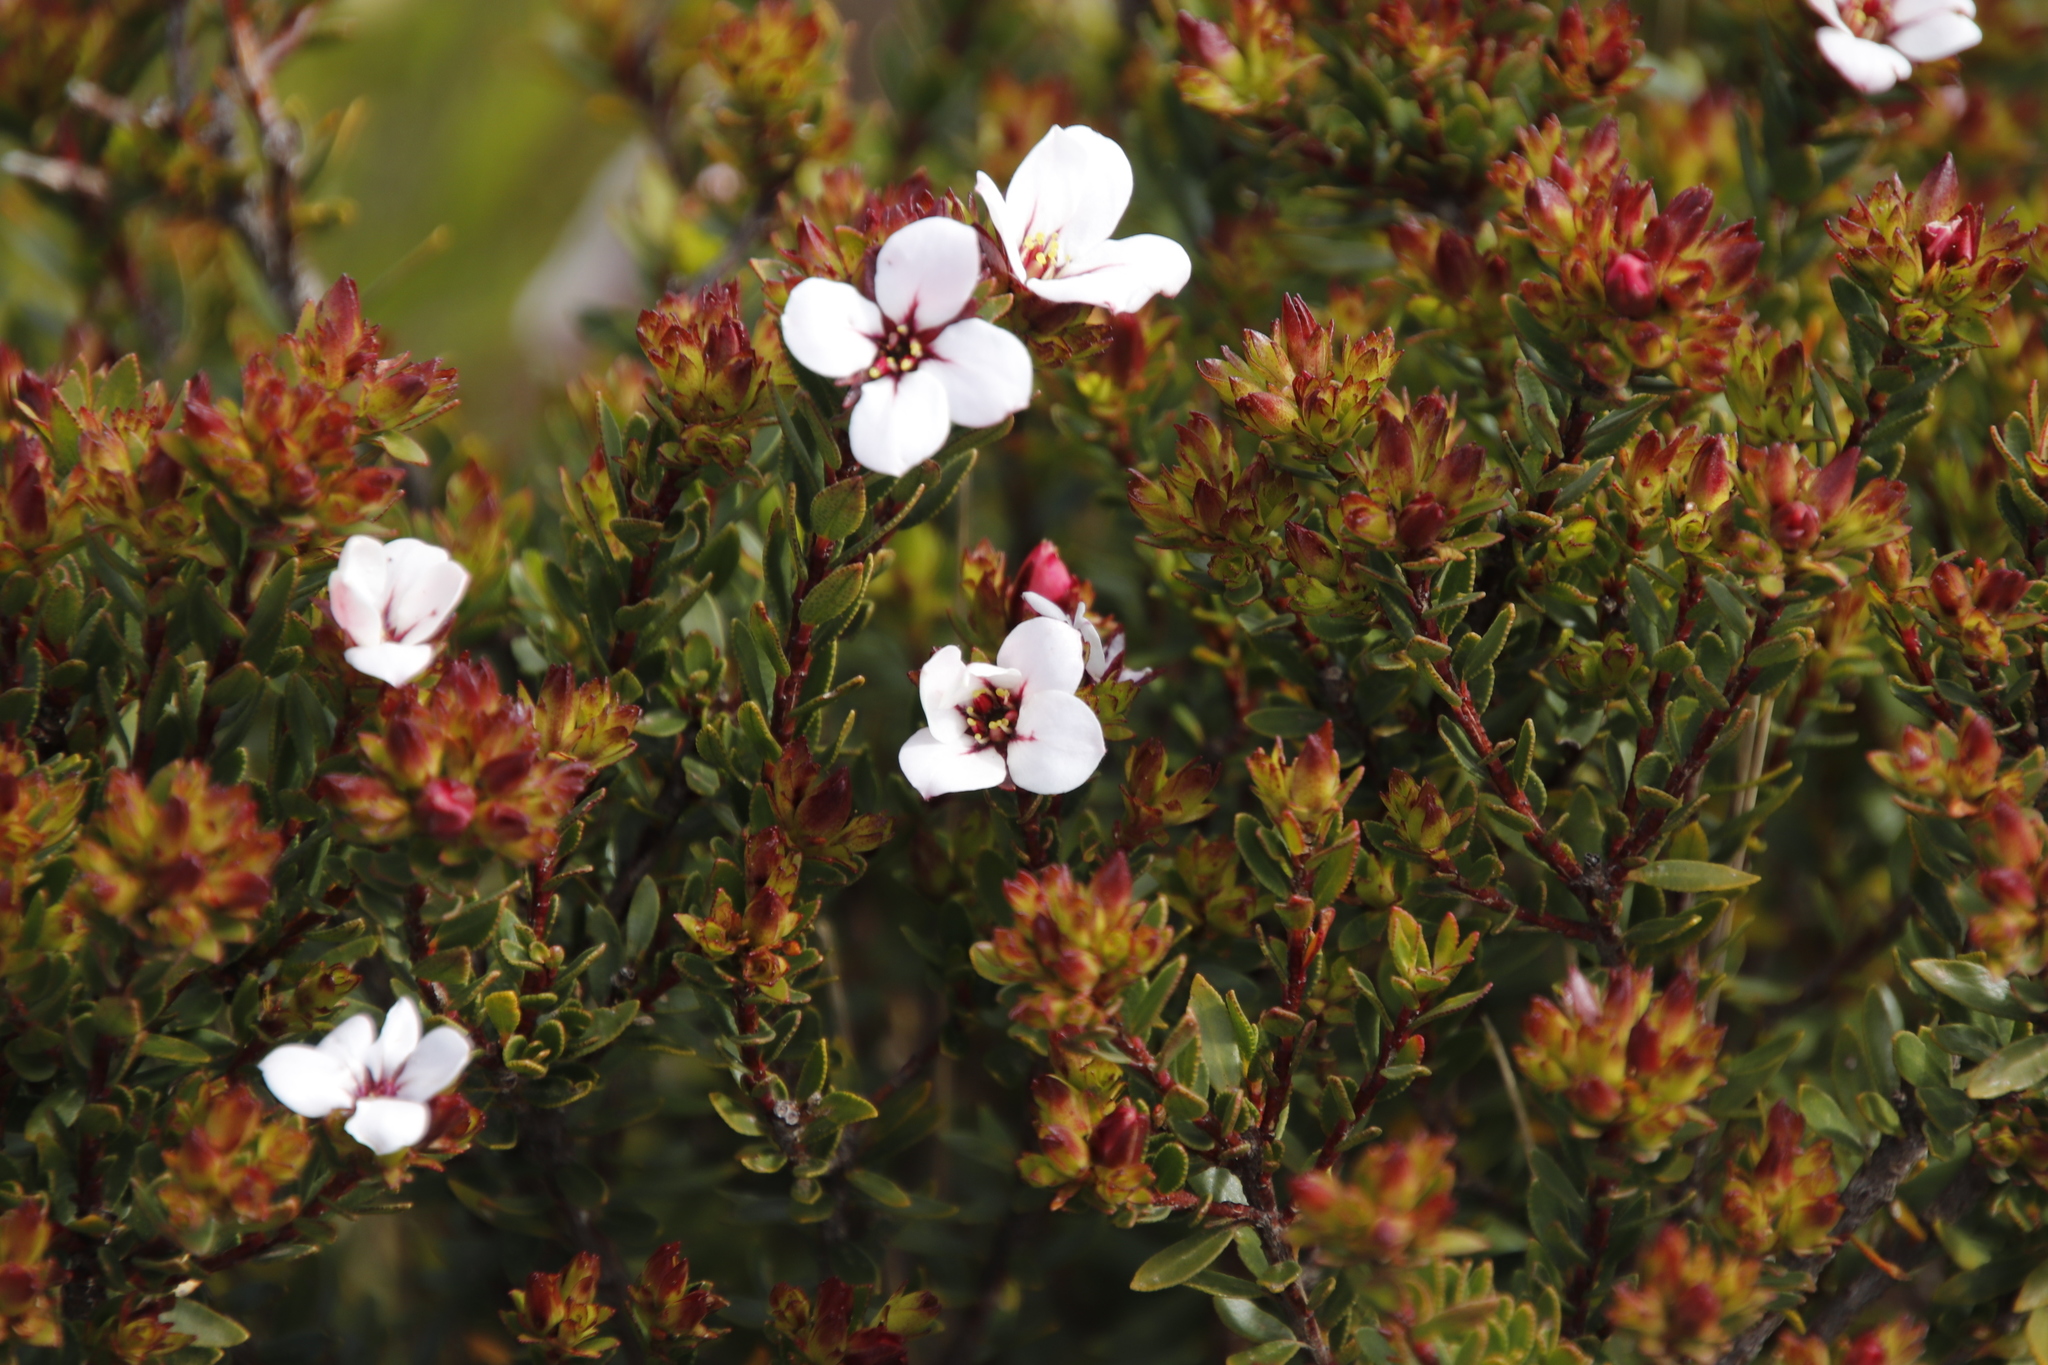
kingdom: Plantae
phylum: Tracheophyta
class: Magnoliopsida
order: Sapindales
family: Rutaceae
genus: Adenandra
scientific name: Adenandra villosa
